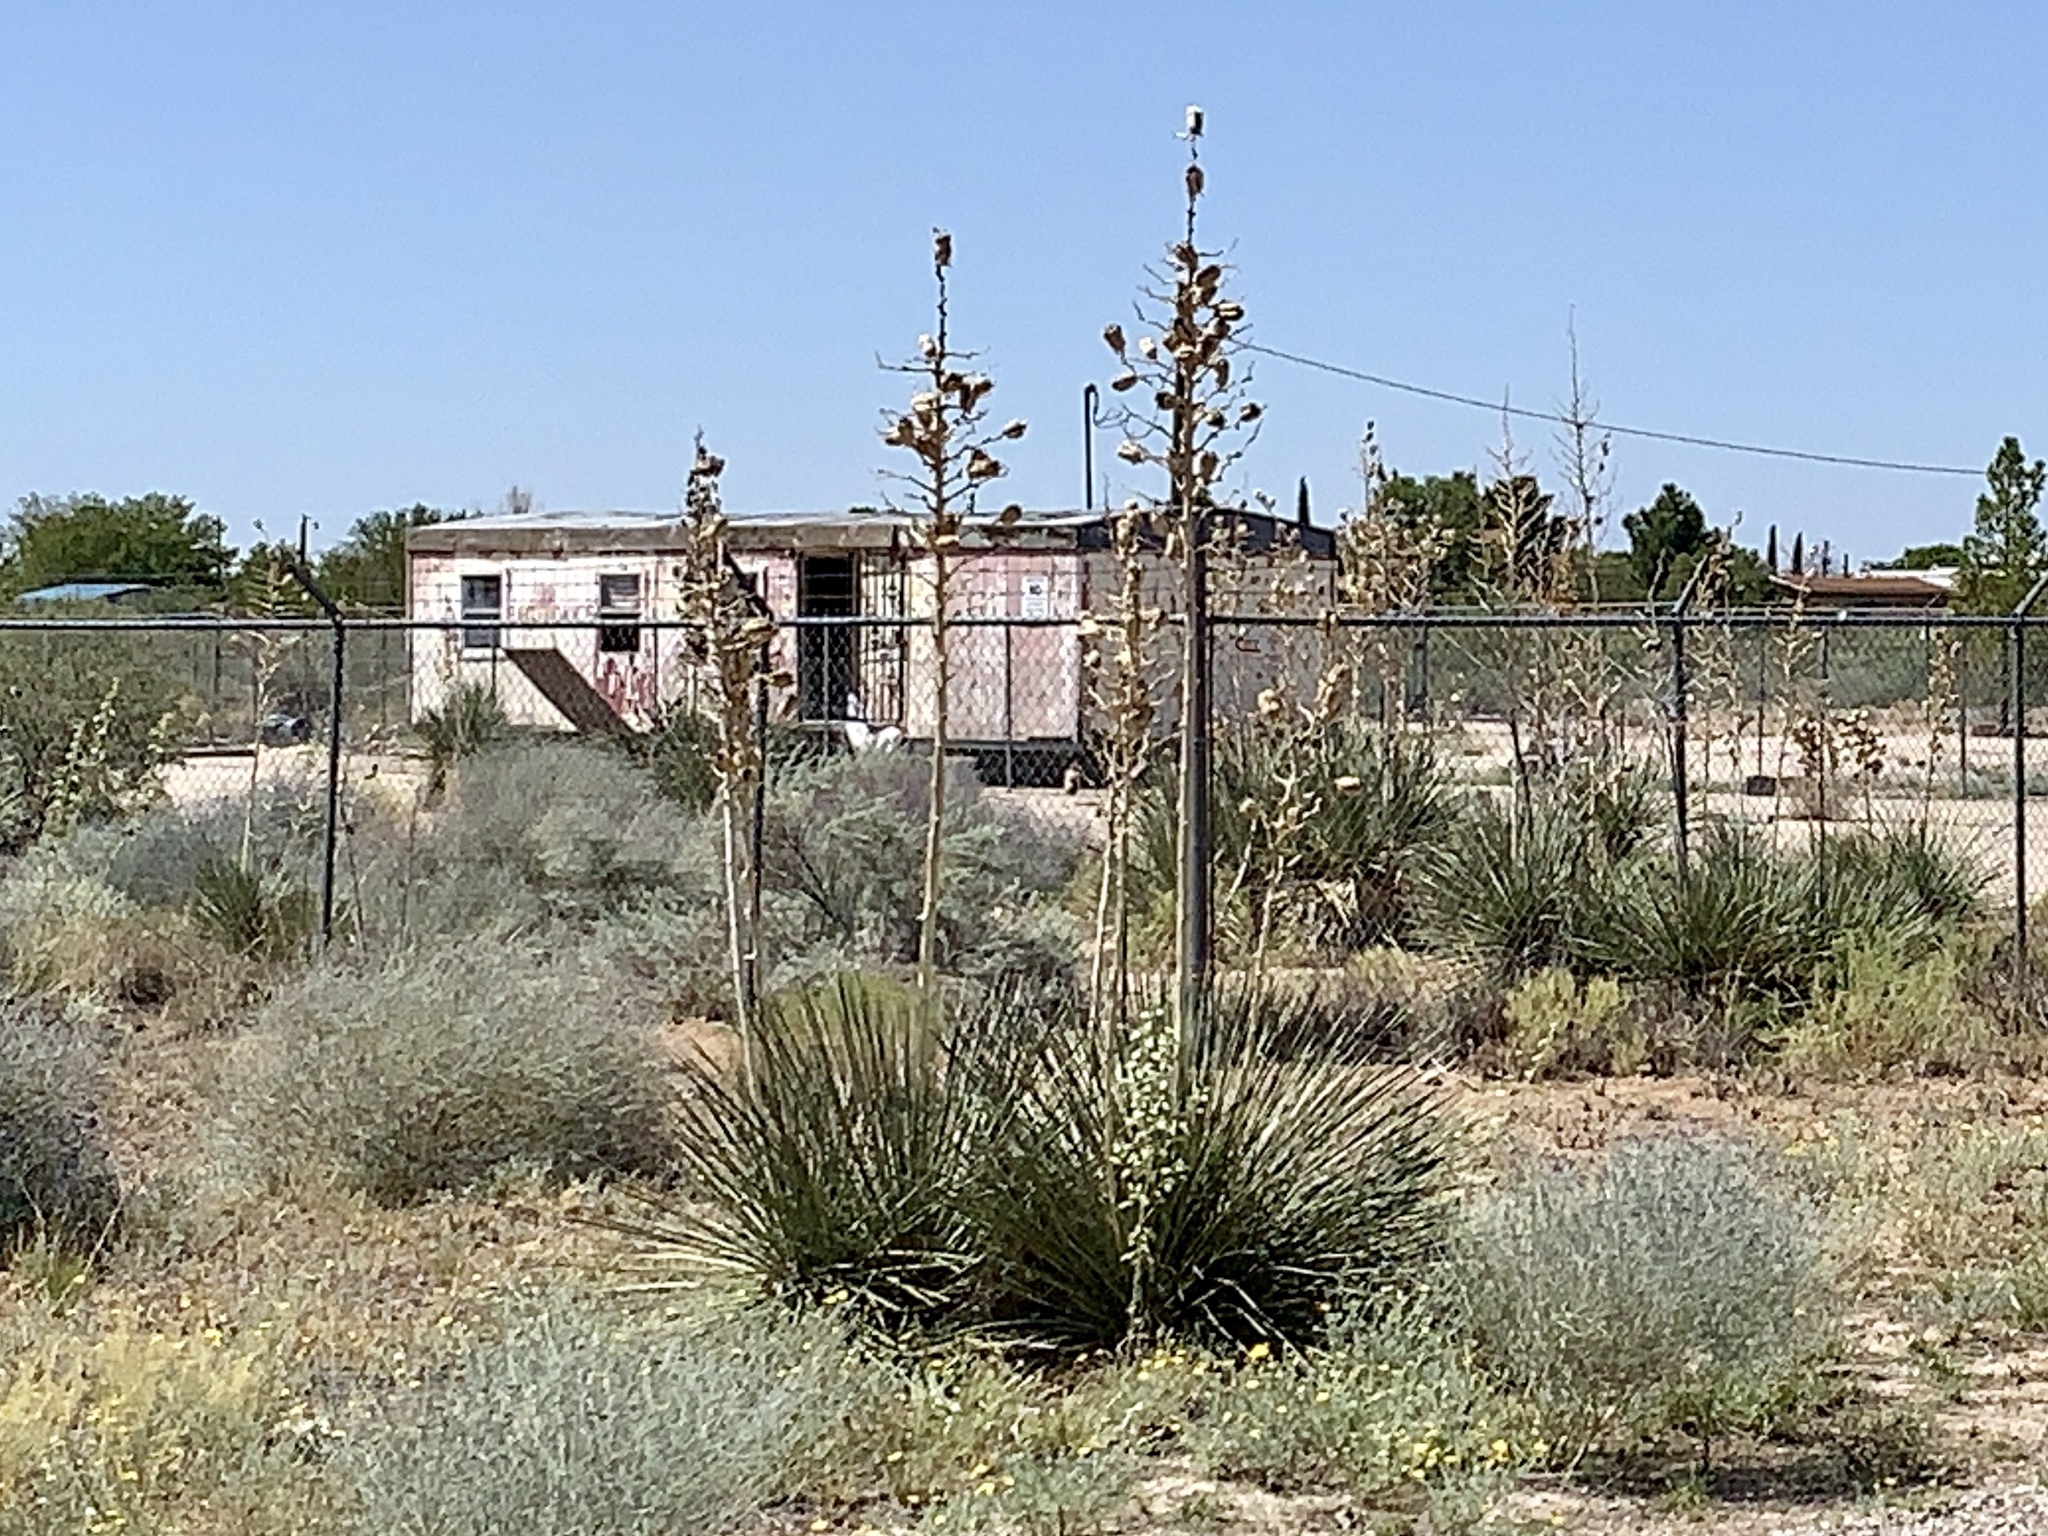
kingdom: Plantae
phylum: Tracheophyta
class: Liliopsida
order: Asparagales
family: Asparagaceae
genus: Yucca
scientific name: Yucca elata
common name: Palmella
